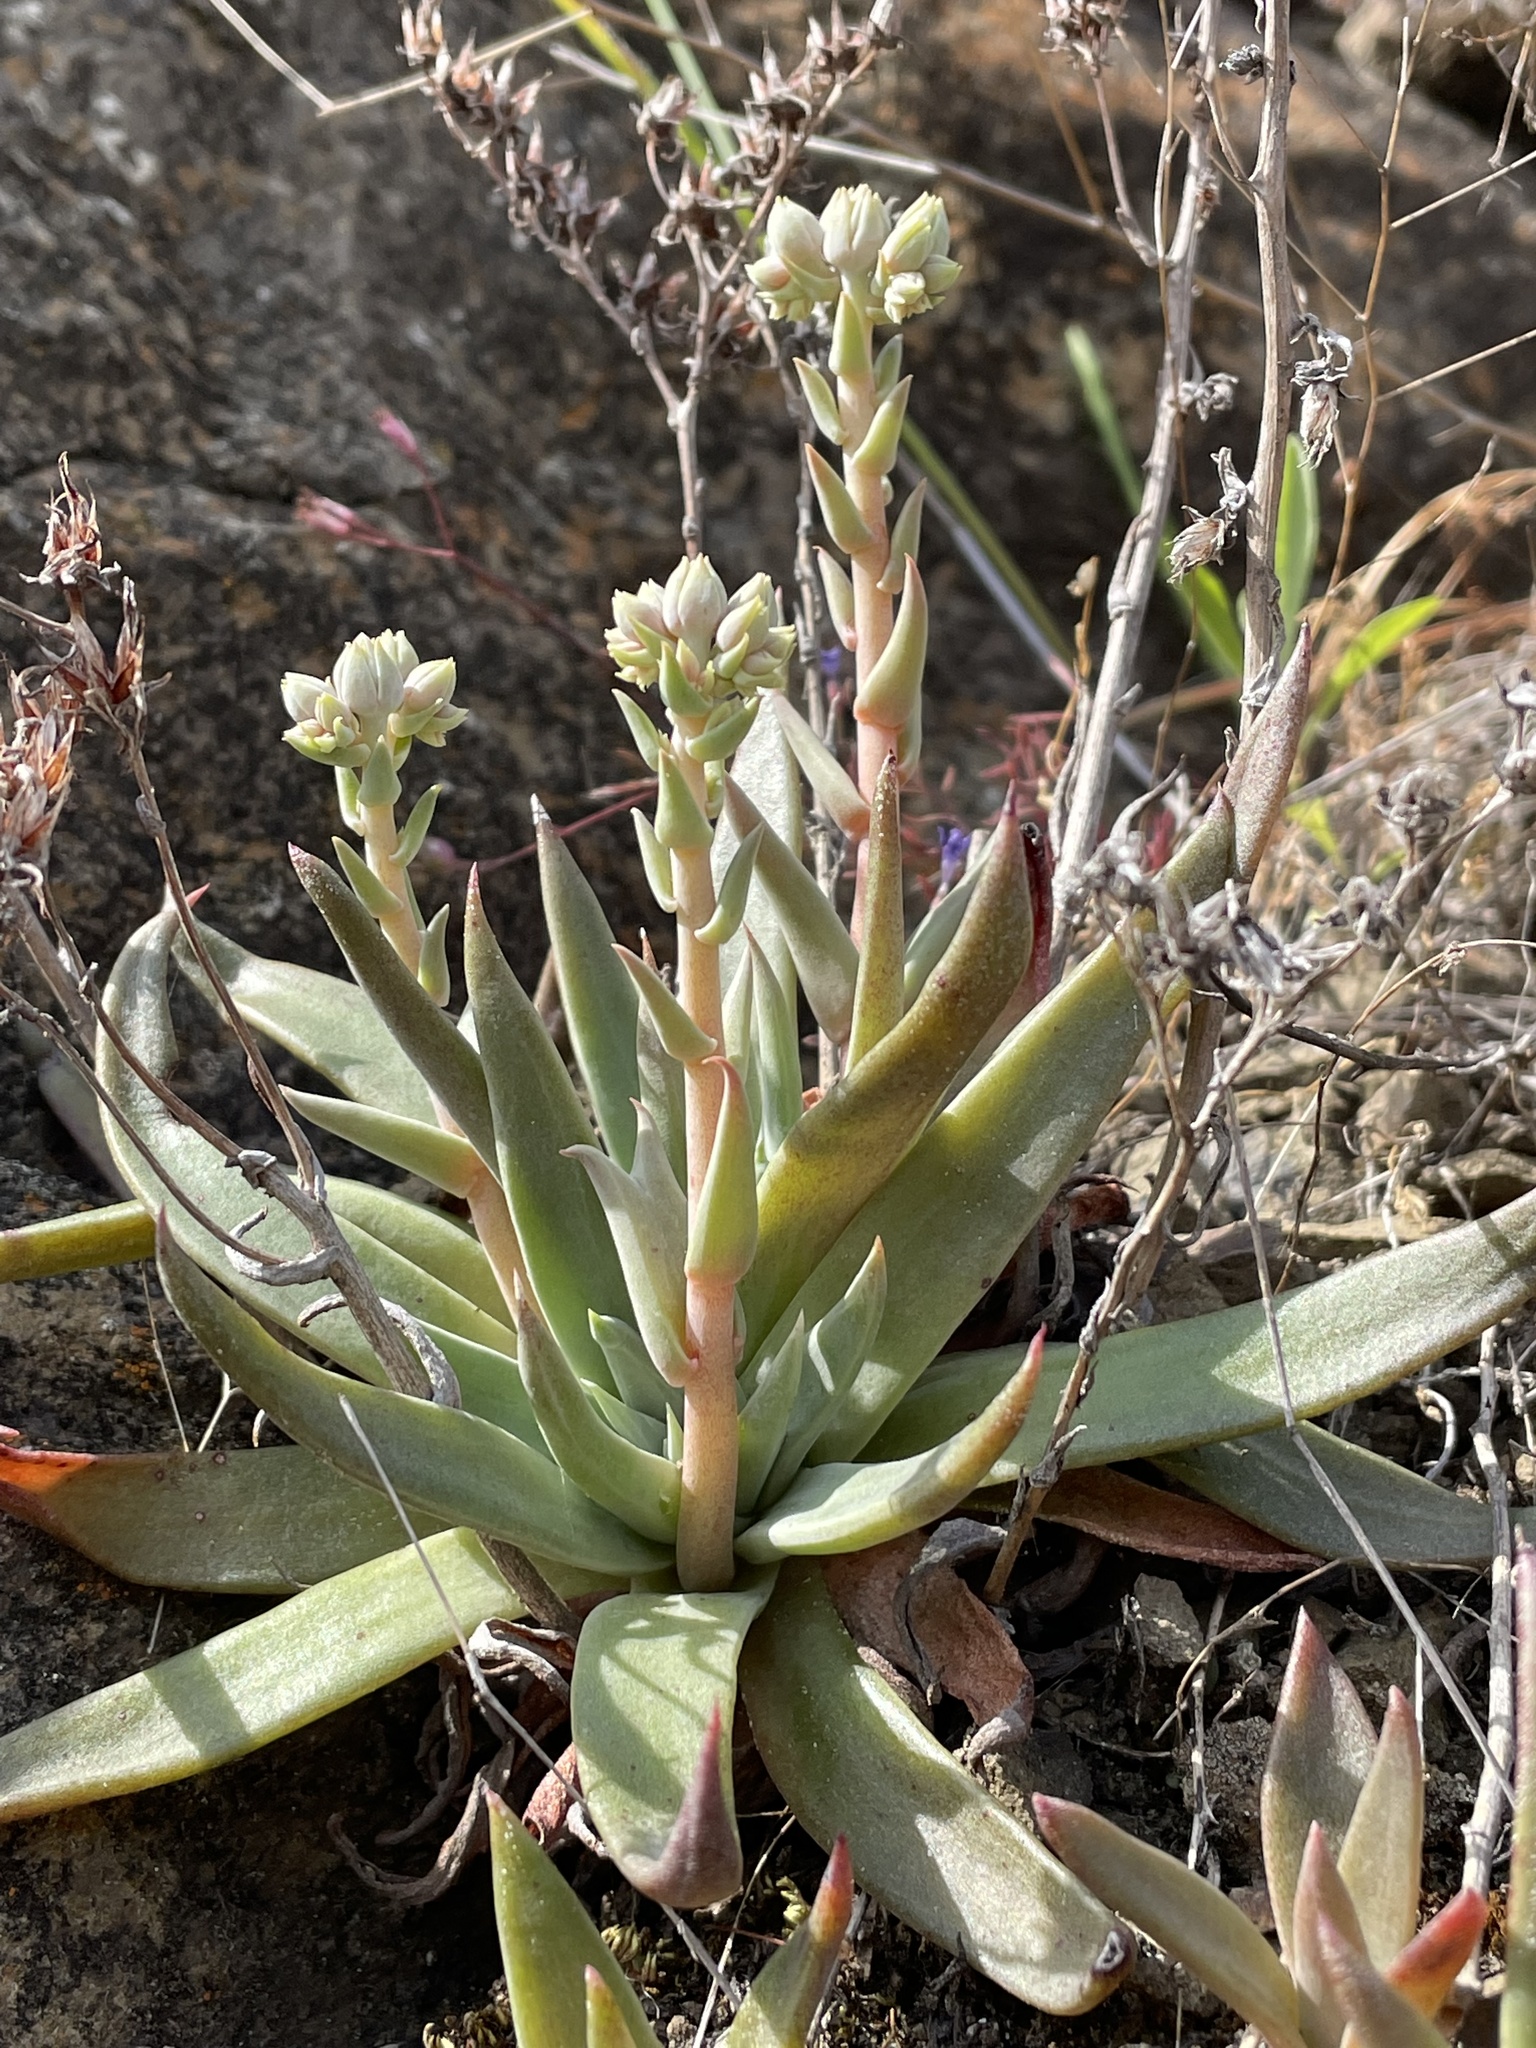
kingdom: Plantae
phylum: Tracheophyta
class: Magnoliopsida
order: Saxifragales
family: Crassulaceae
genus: Dudleya
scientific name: Dudleya abramsii
